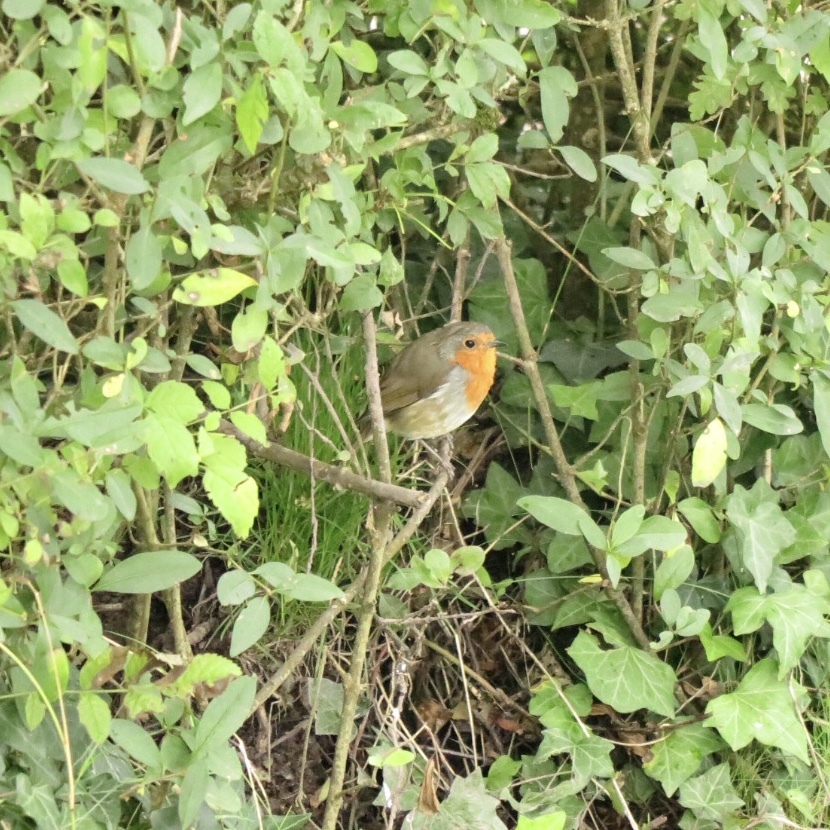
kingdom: Animalia
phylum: Chordata
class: Aves
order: Passeriformes
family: Muscicapidae
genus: Erithacus
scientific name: Erithacus rubecula
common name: European robin
